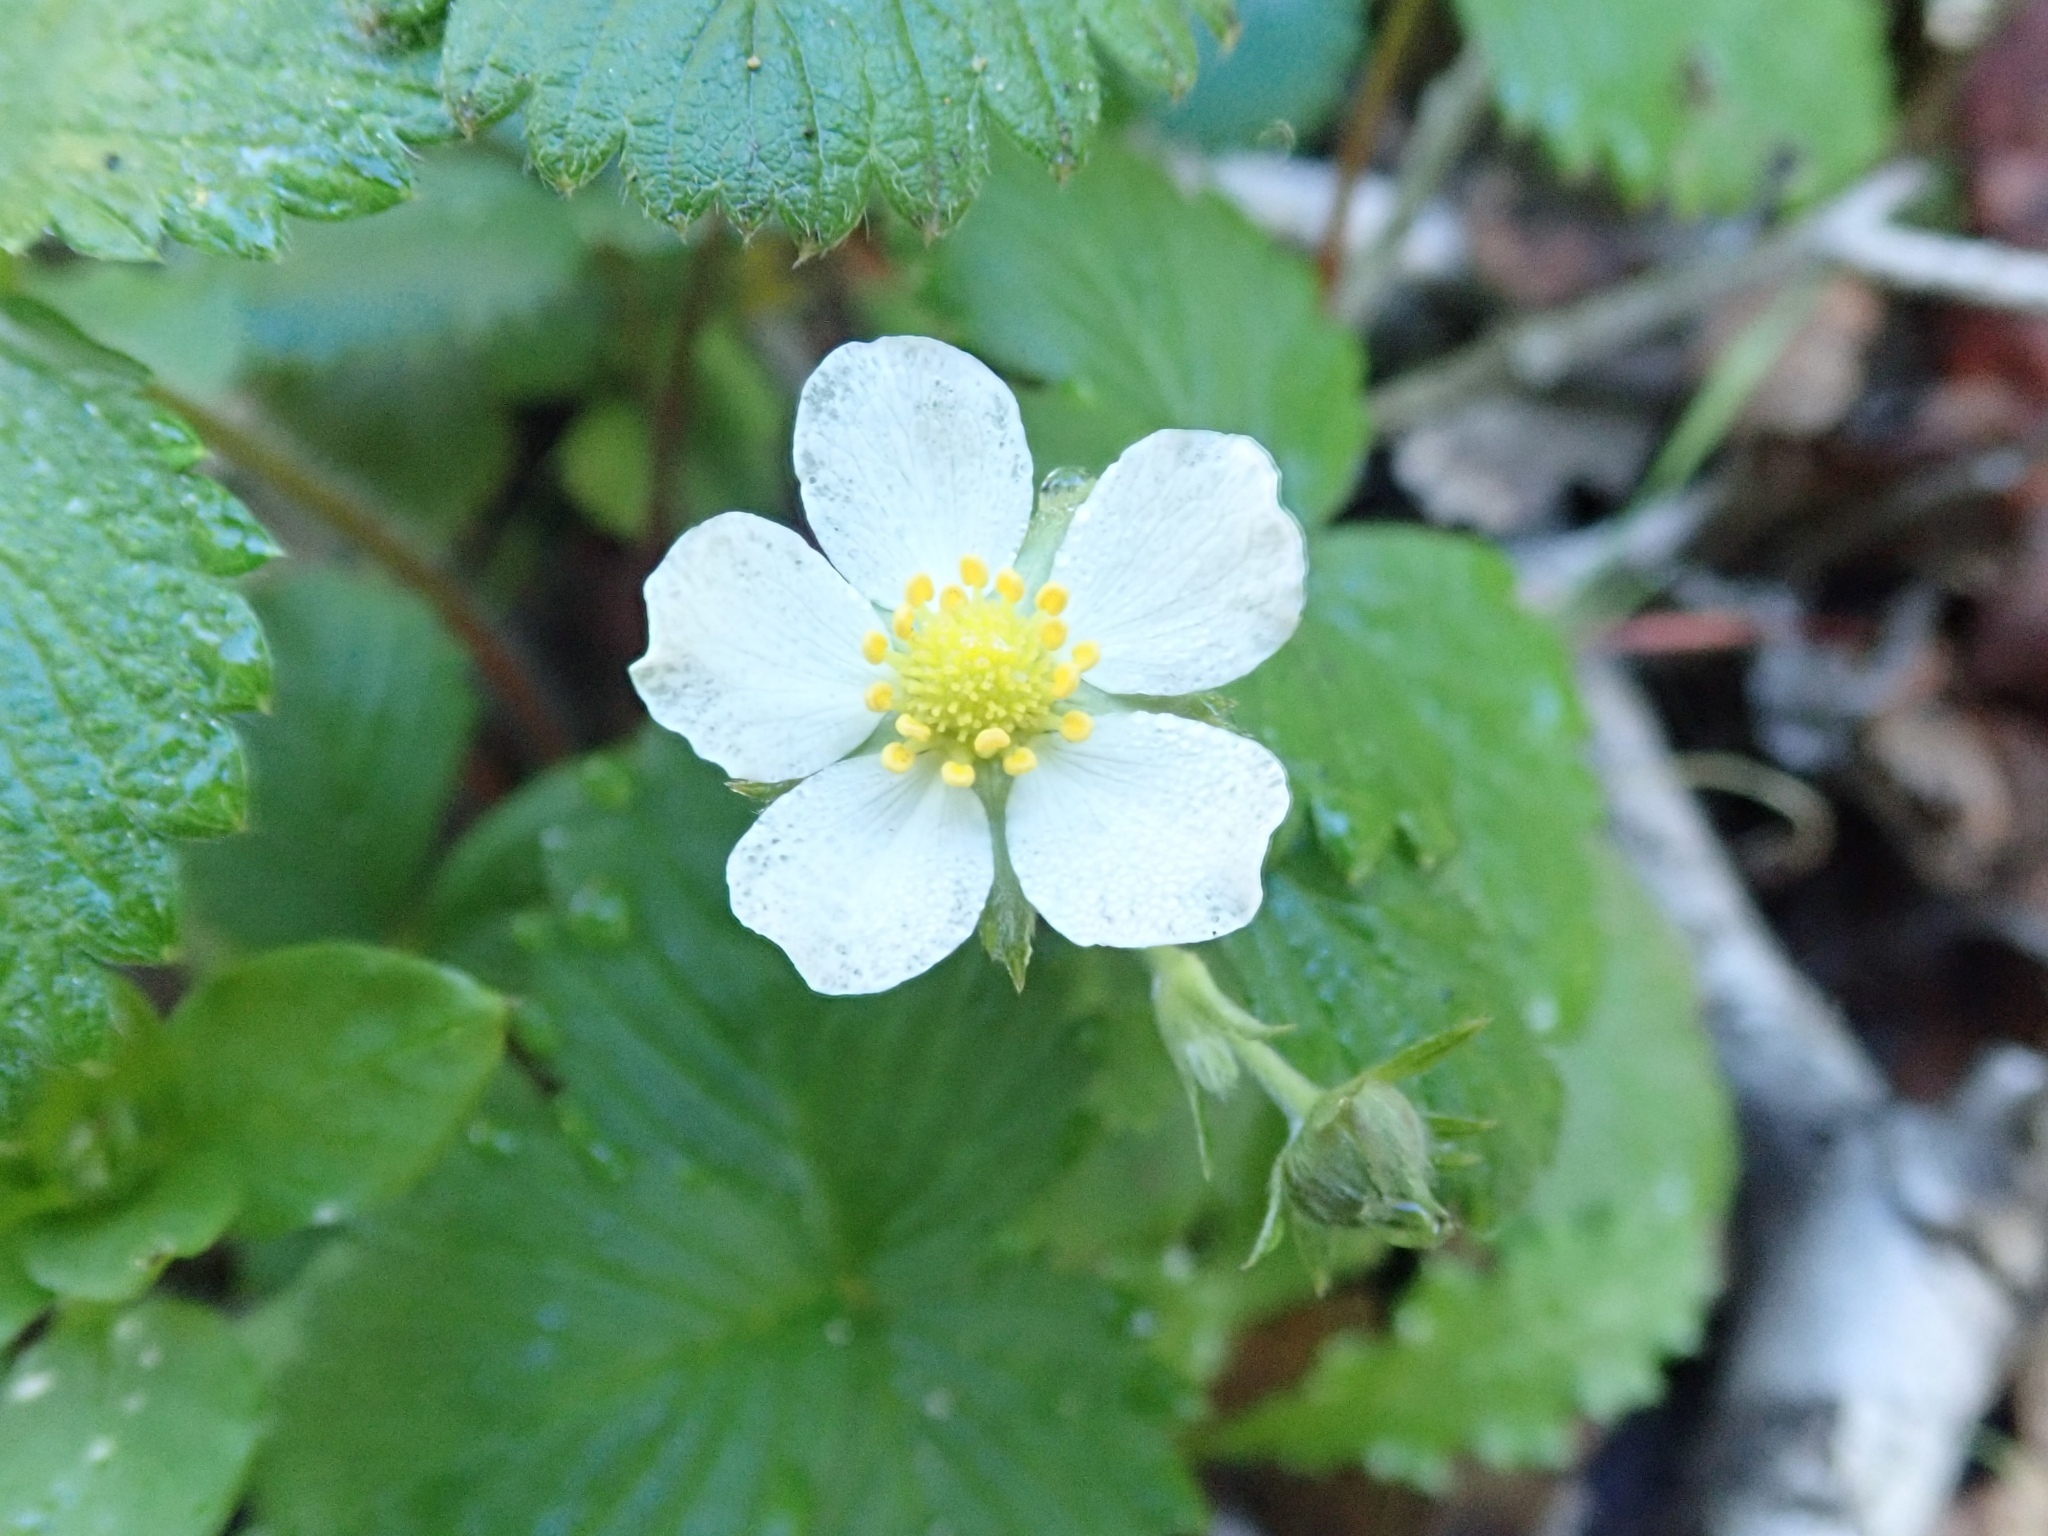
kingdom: Plantae
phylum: Tracheophyta
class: Magnoliopsida
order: Rosales
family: Rosaceae
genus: Fragaria
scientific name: Fragaria vesca
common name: Wild strawberry
